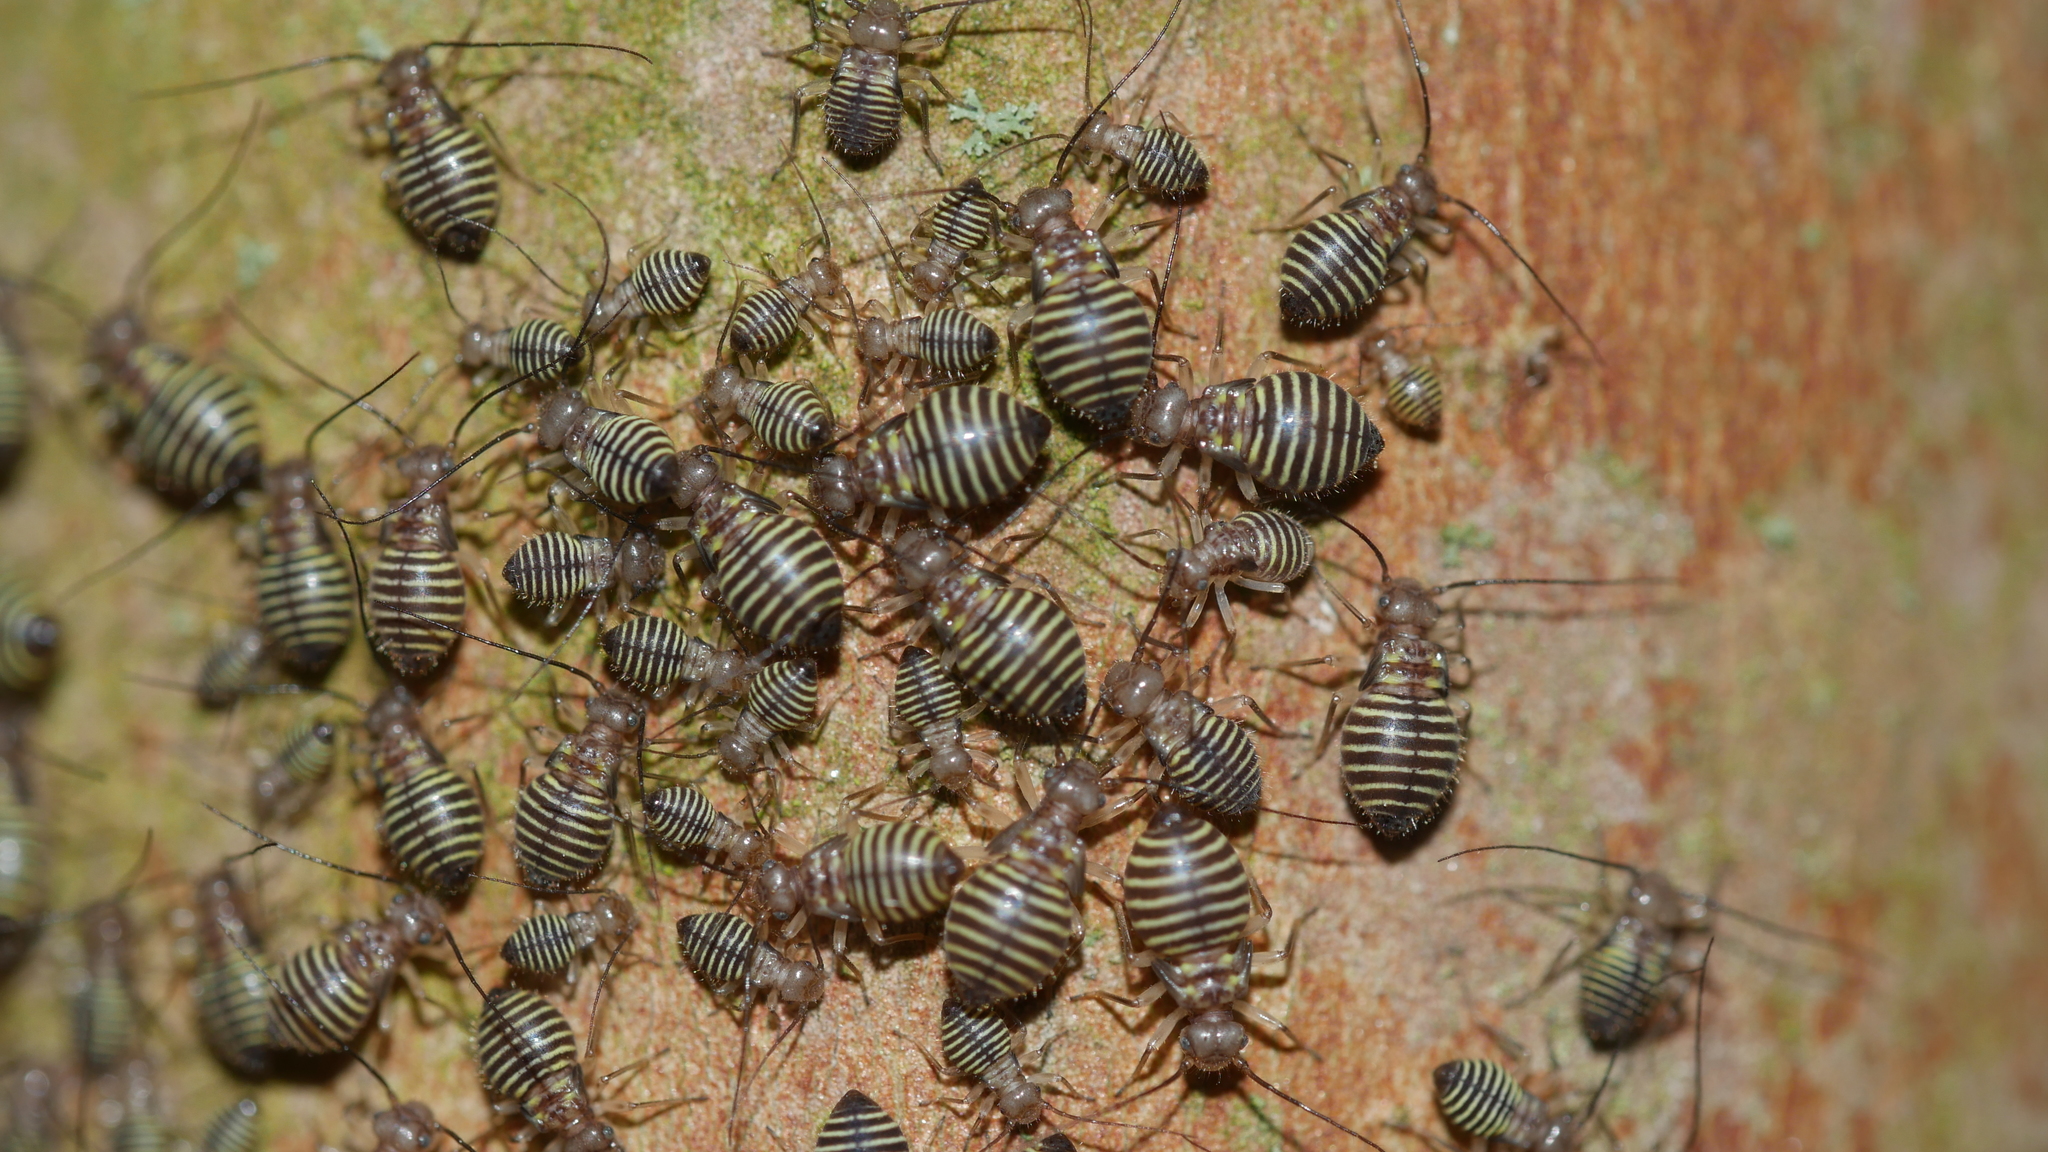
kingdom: Animalia
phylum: Arthropoda
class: Insecta
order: Psocodea
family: Psocidae
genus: Cerastipsocus
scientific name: Cerastipsocus venosus
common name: Tree cattle
